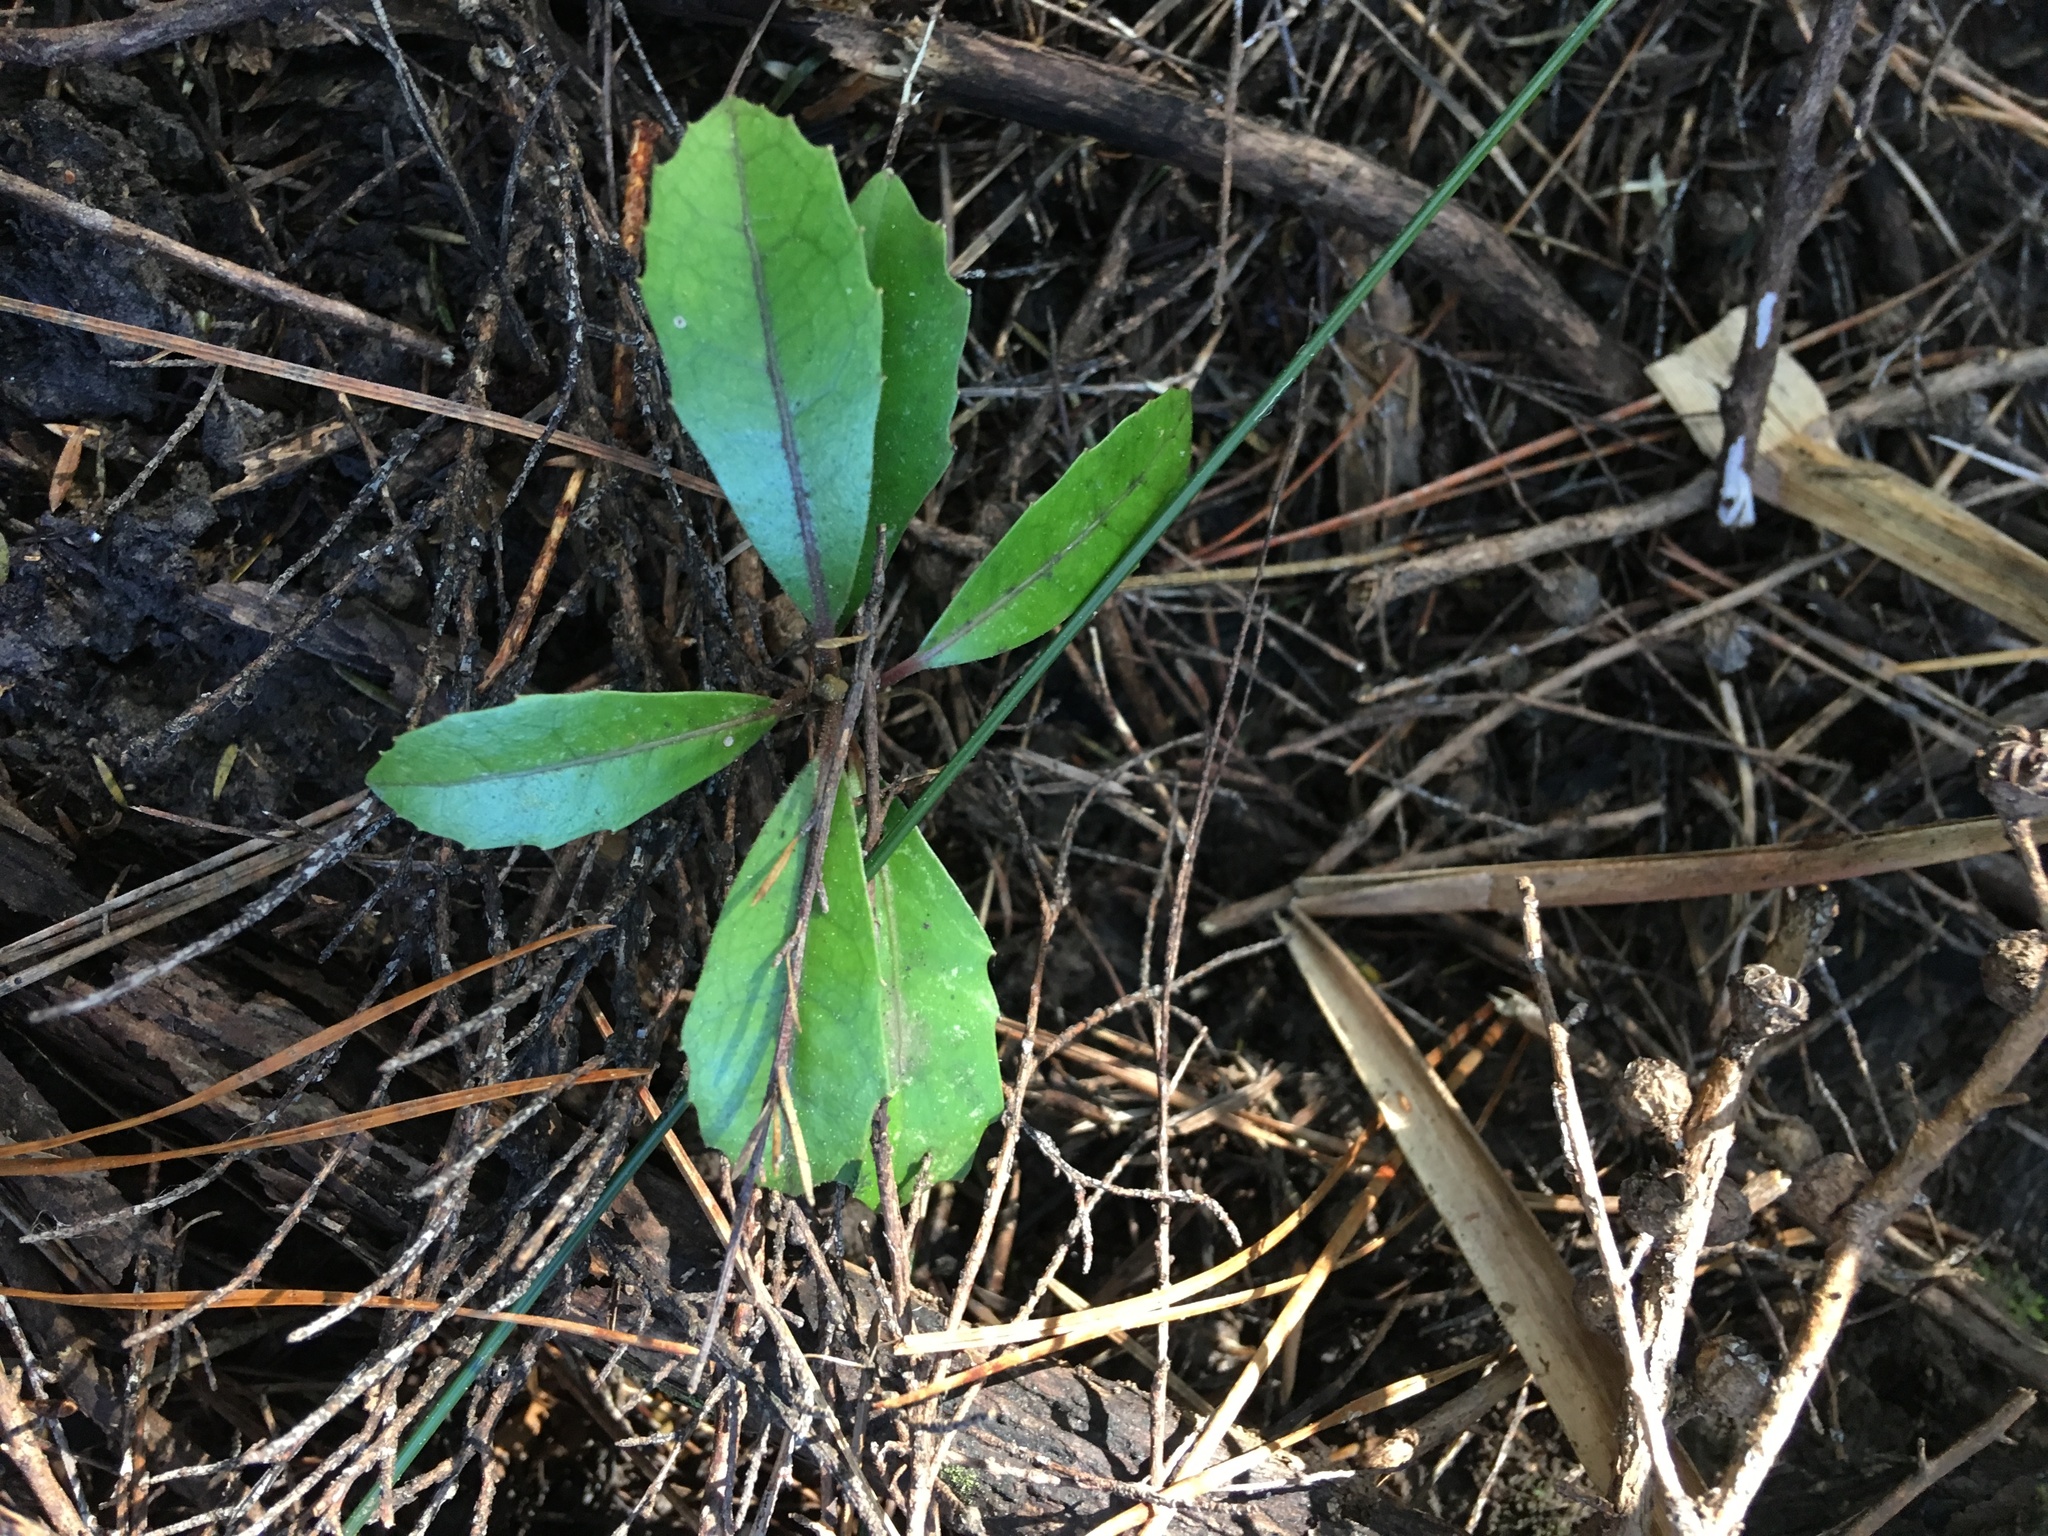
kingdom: Plantae
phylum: Tracheophyta
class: Magnoliopsida
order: Laurales
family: Monimiaceae
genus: Hedycarya
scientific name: Hedycarya arborea
